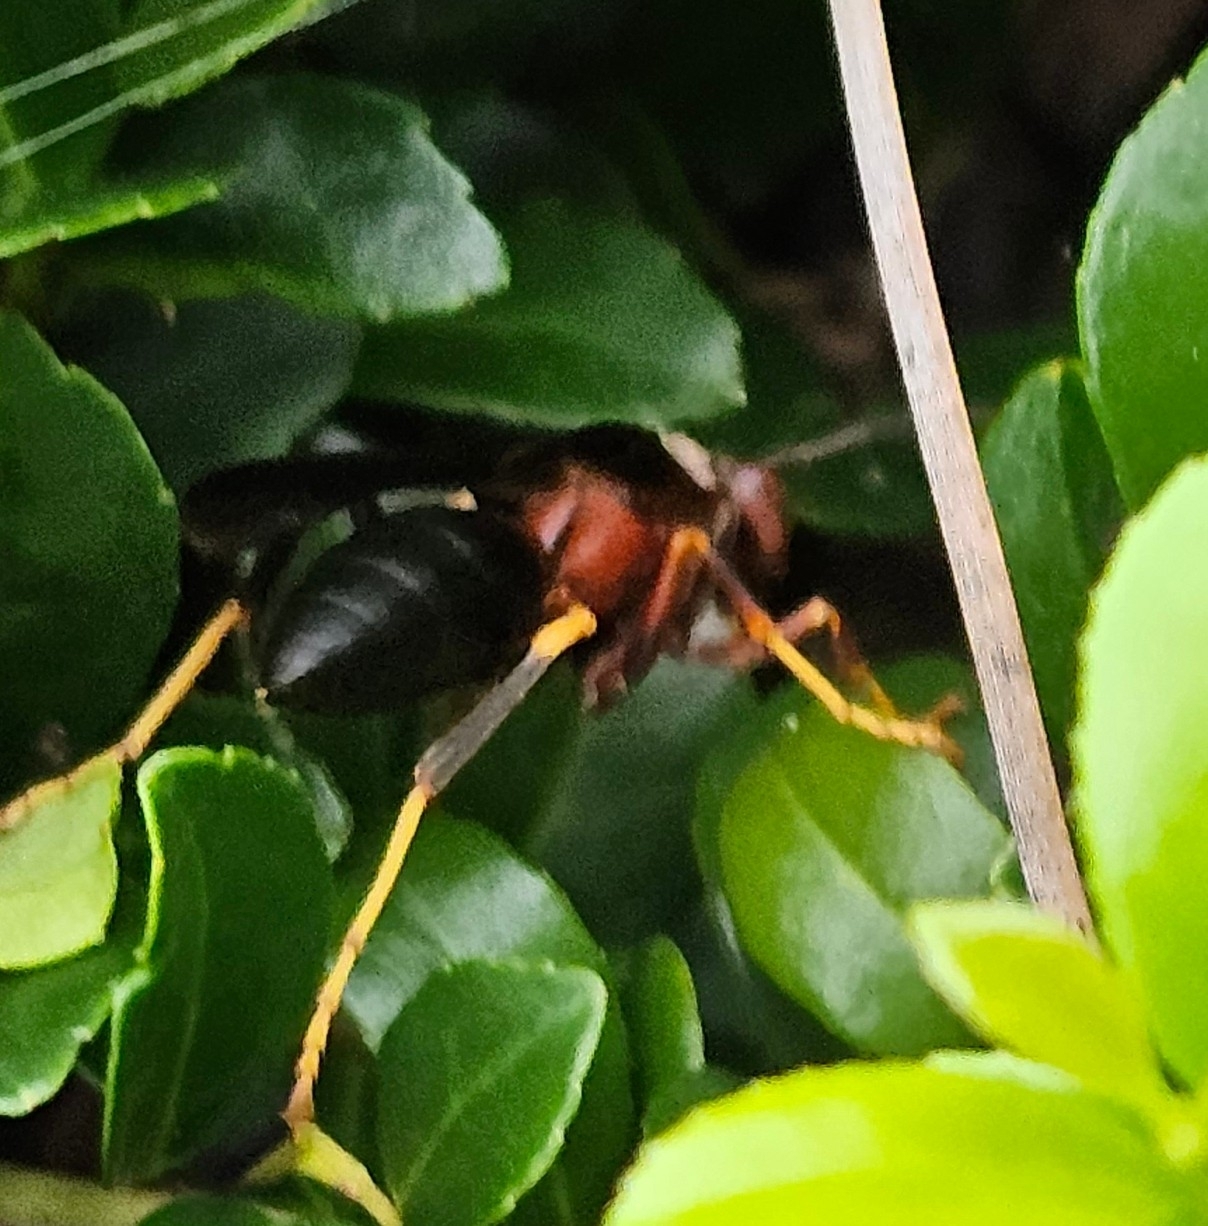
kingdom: Animalia
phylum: Arthropoda
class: Insecta
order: Hymenoptera
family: Eumenidae
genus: Polistes
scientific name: Polistes metricus
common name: Metric paper wasp
